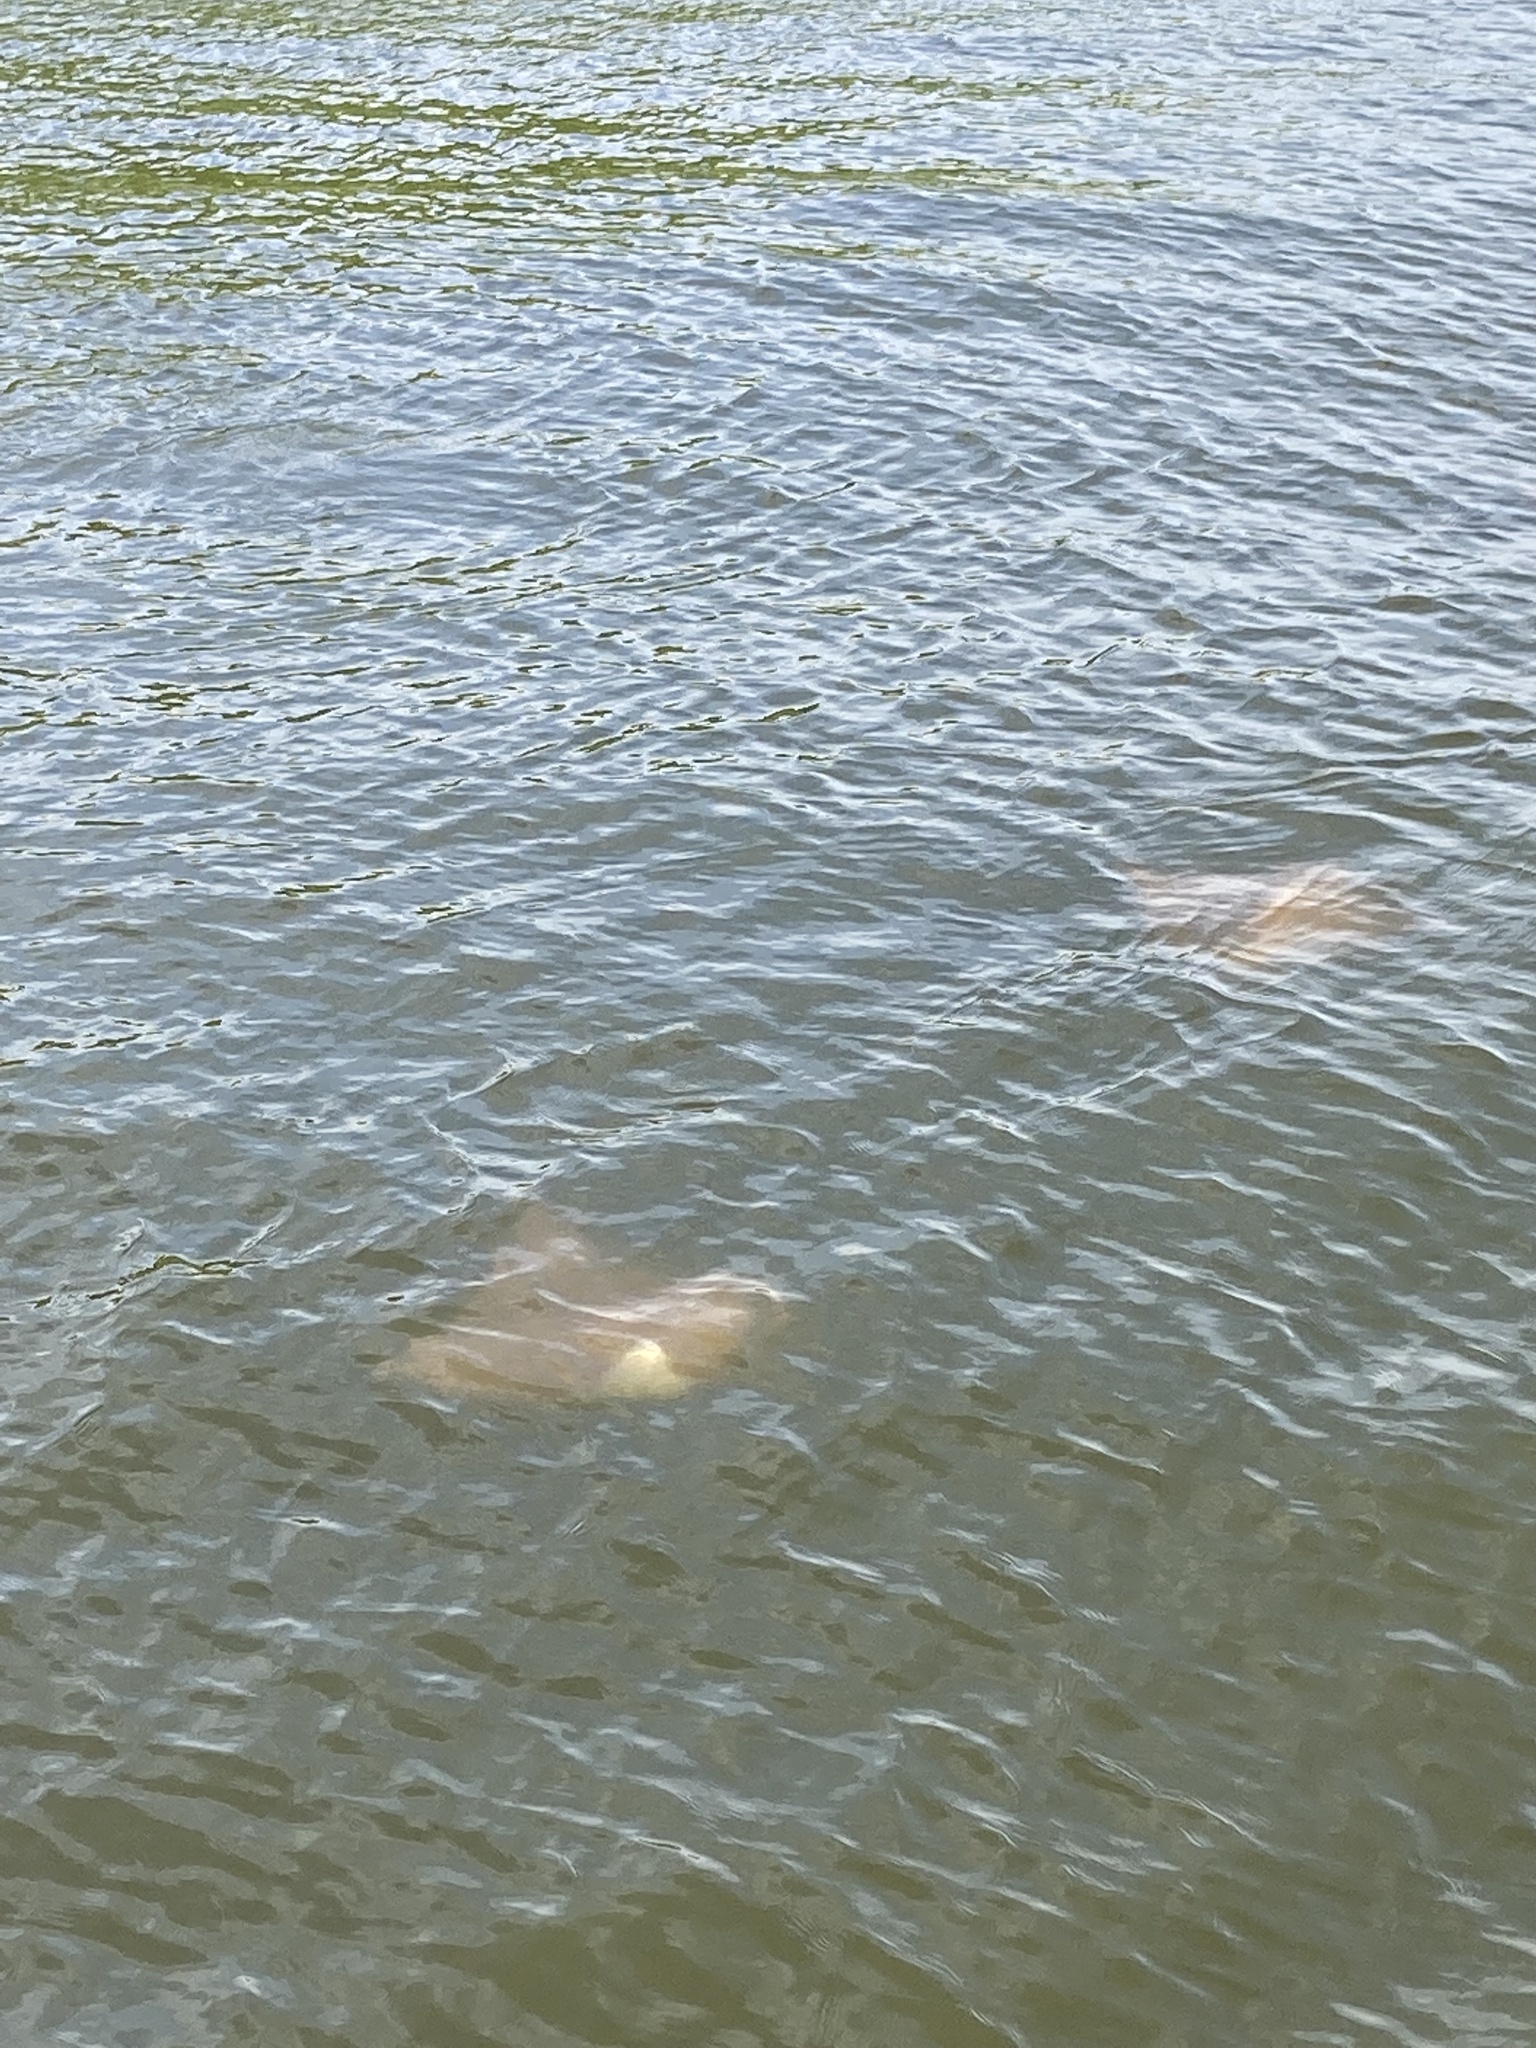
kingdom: Animalia
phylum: Chordata
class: Elasmobranchii
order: Myliobatiformes
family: Myliobatidae
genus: Rhinoptera
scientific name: Rhinoptera bonasus
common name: Cownose ray
